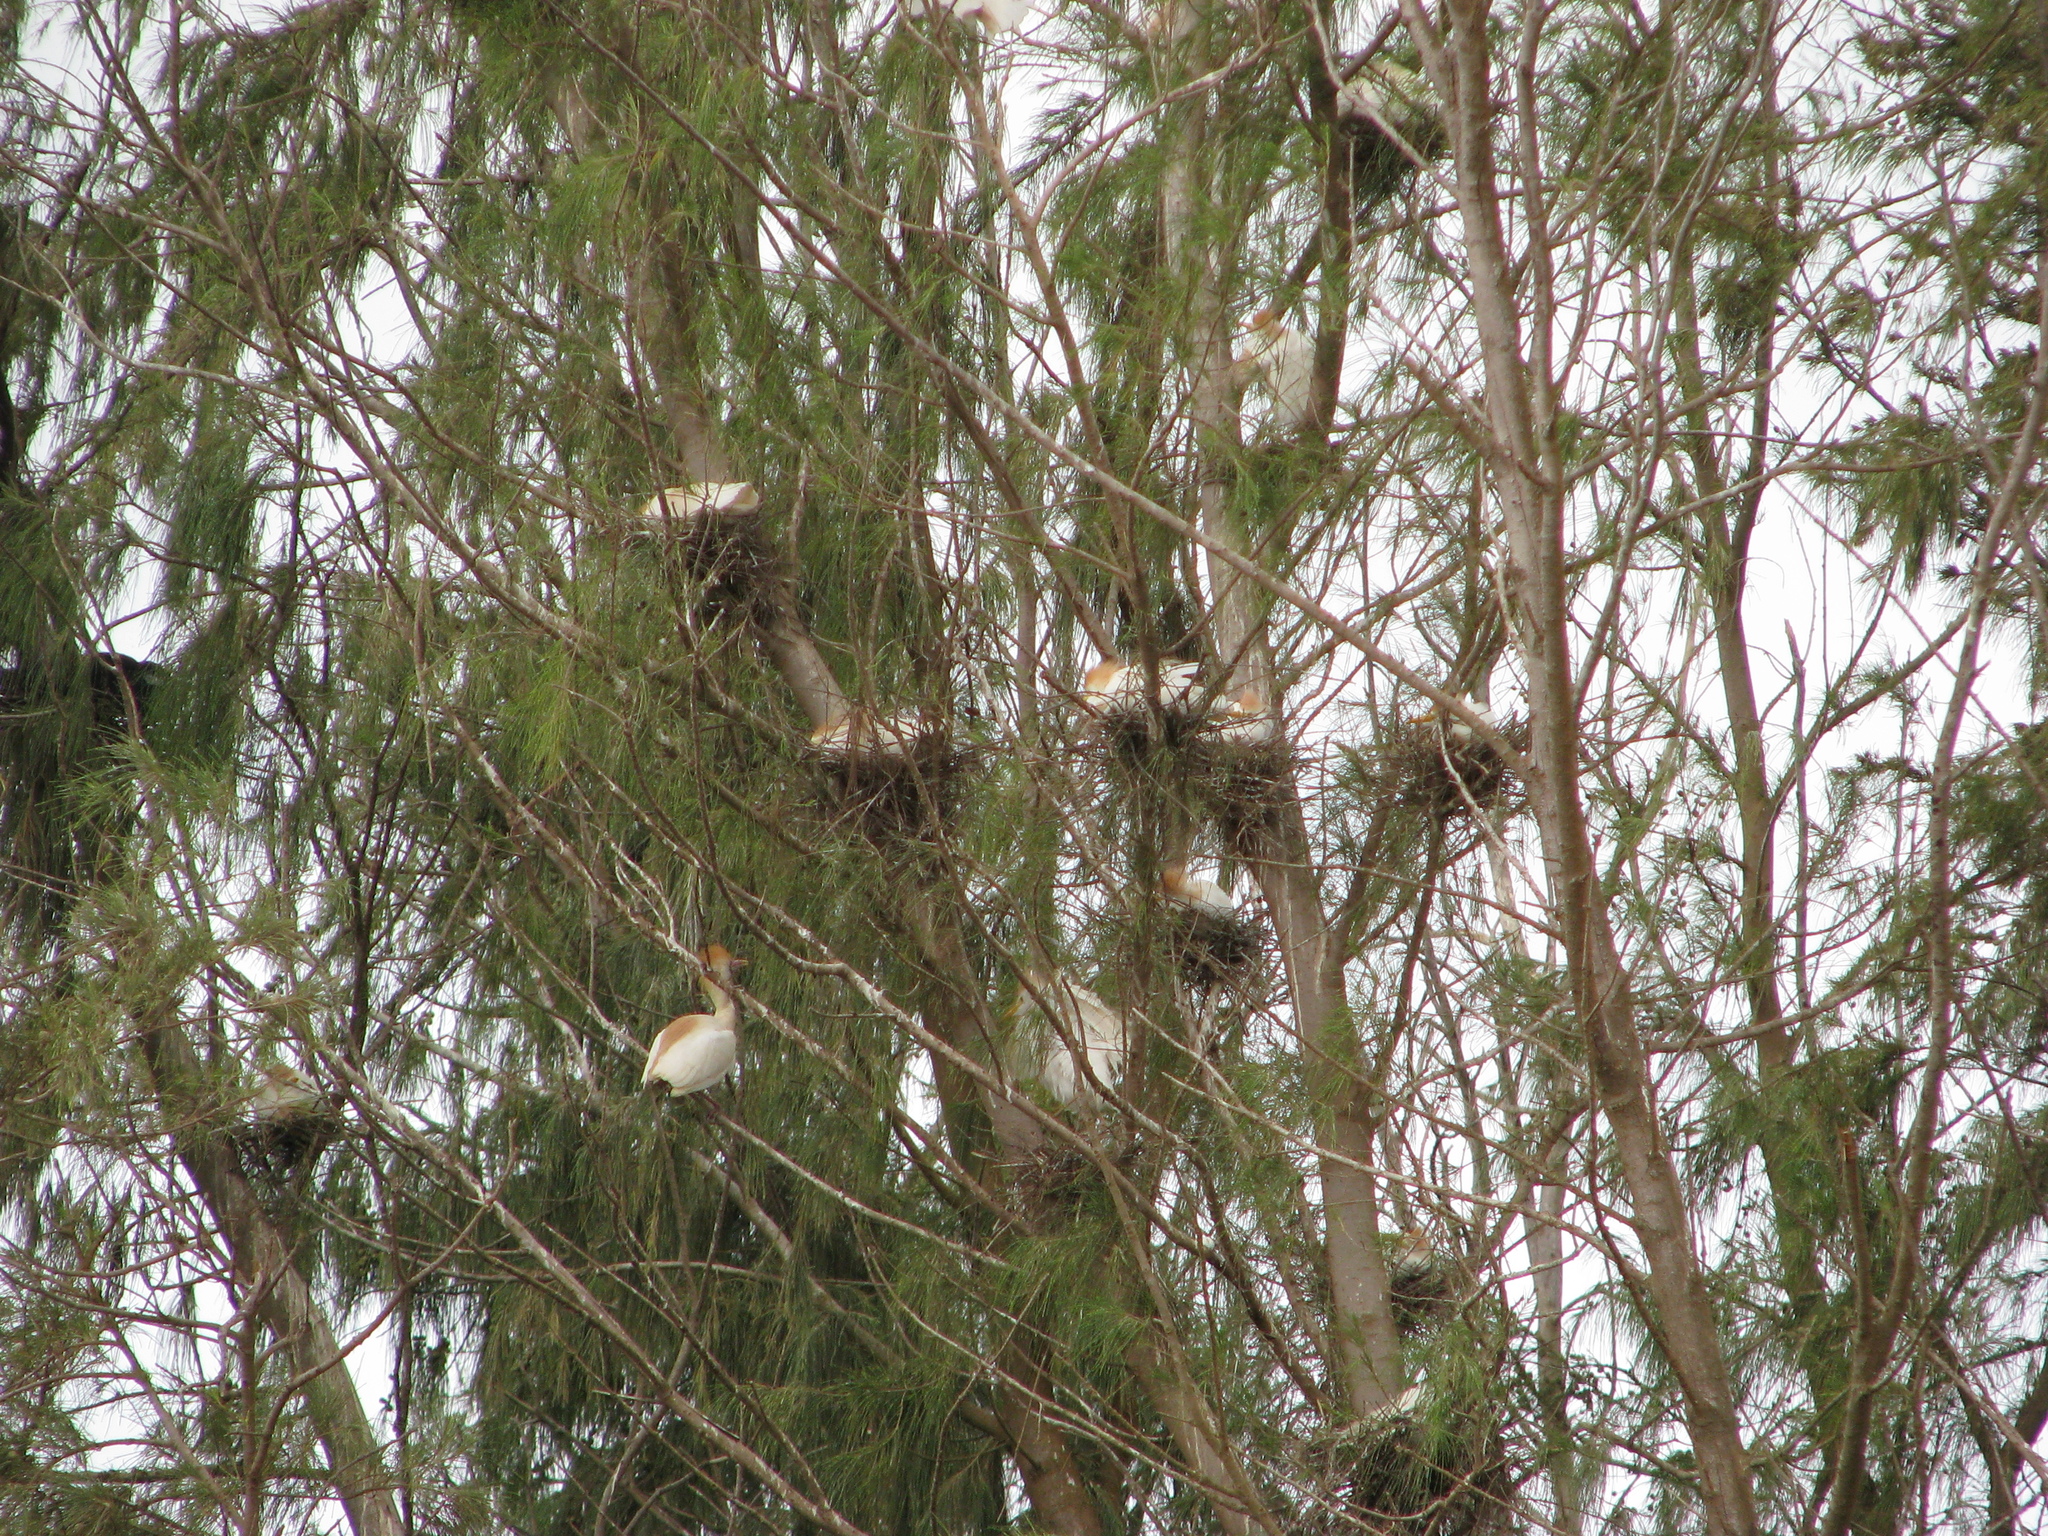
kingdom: Animalia
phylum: Chordata
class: Aves
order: Pelecaniformes
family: Ardeidae
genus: Bubulcus
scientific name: Bubulcus ibis
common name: Cattle egret
